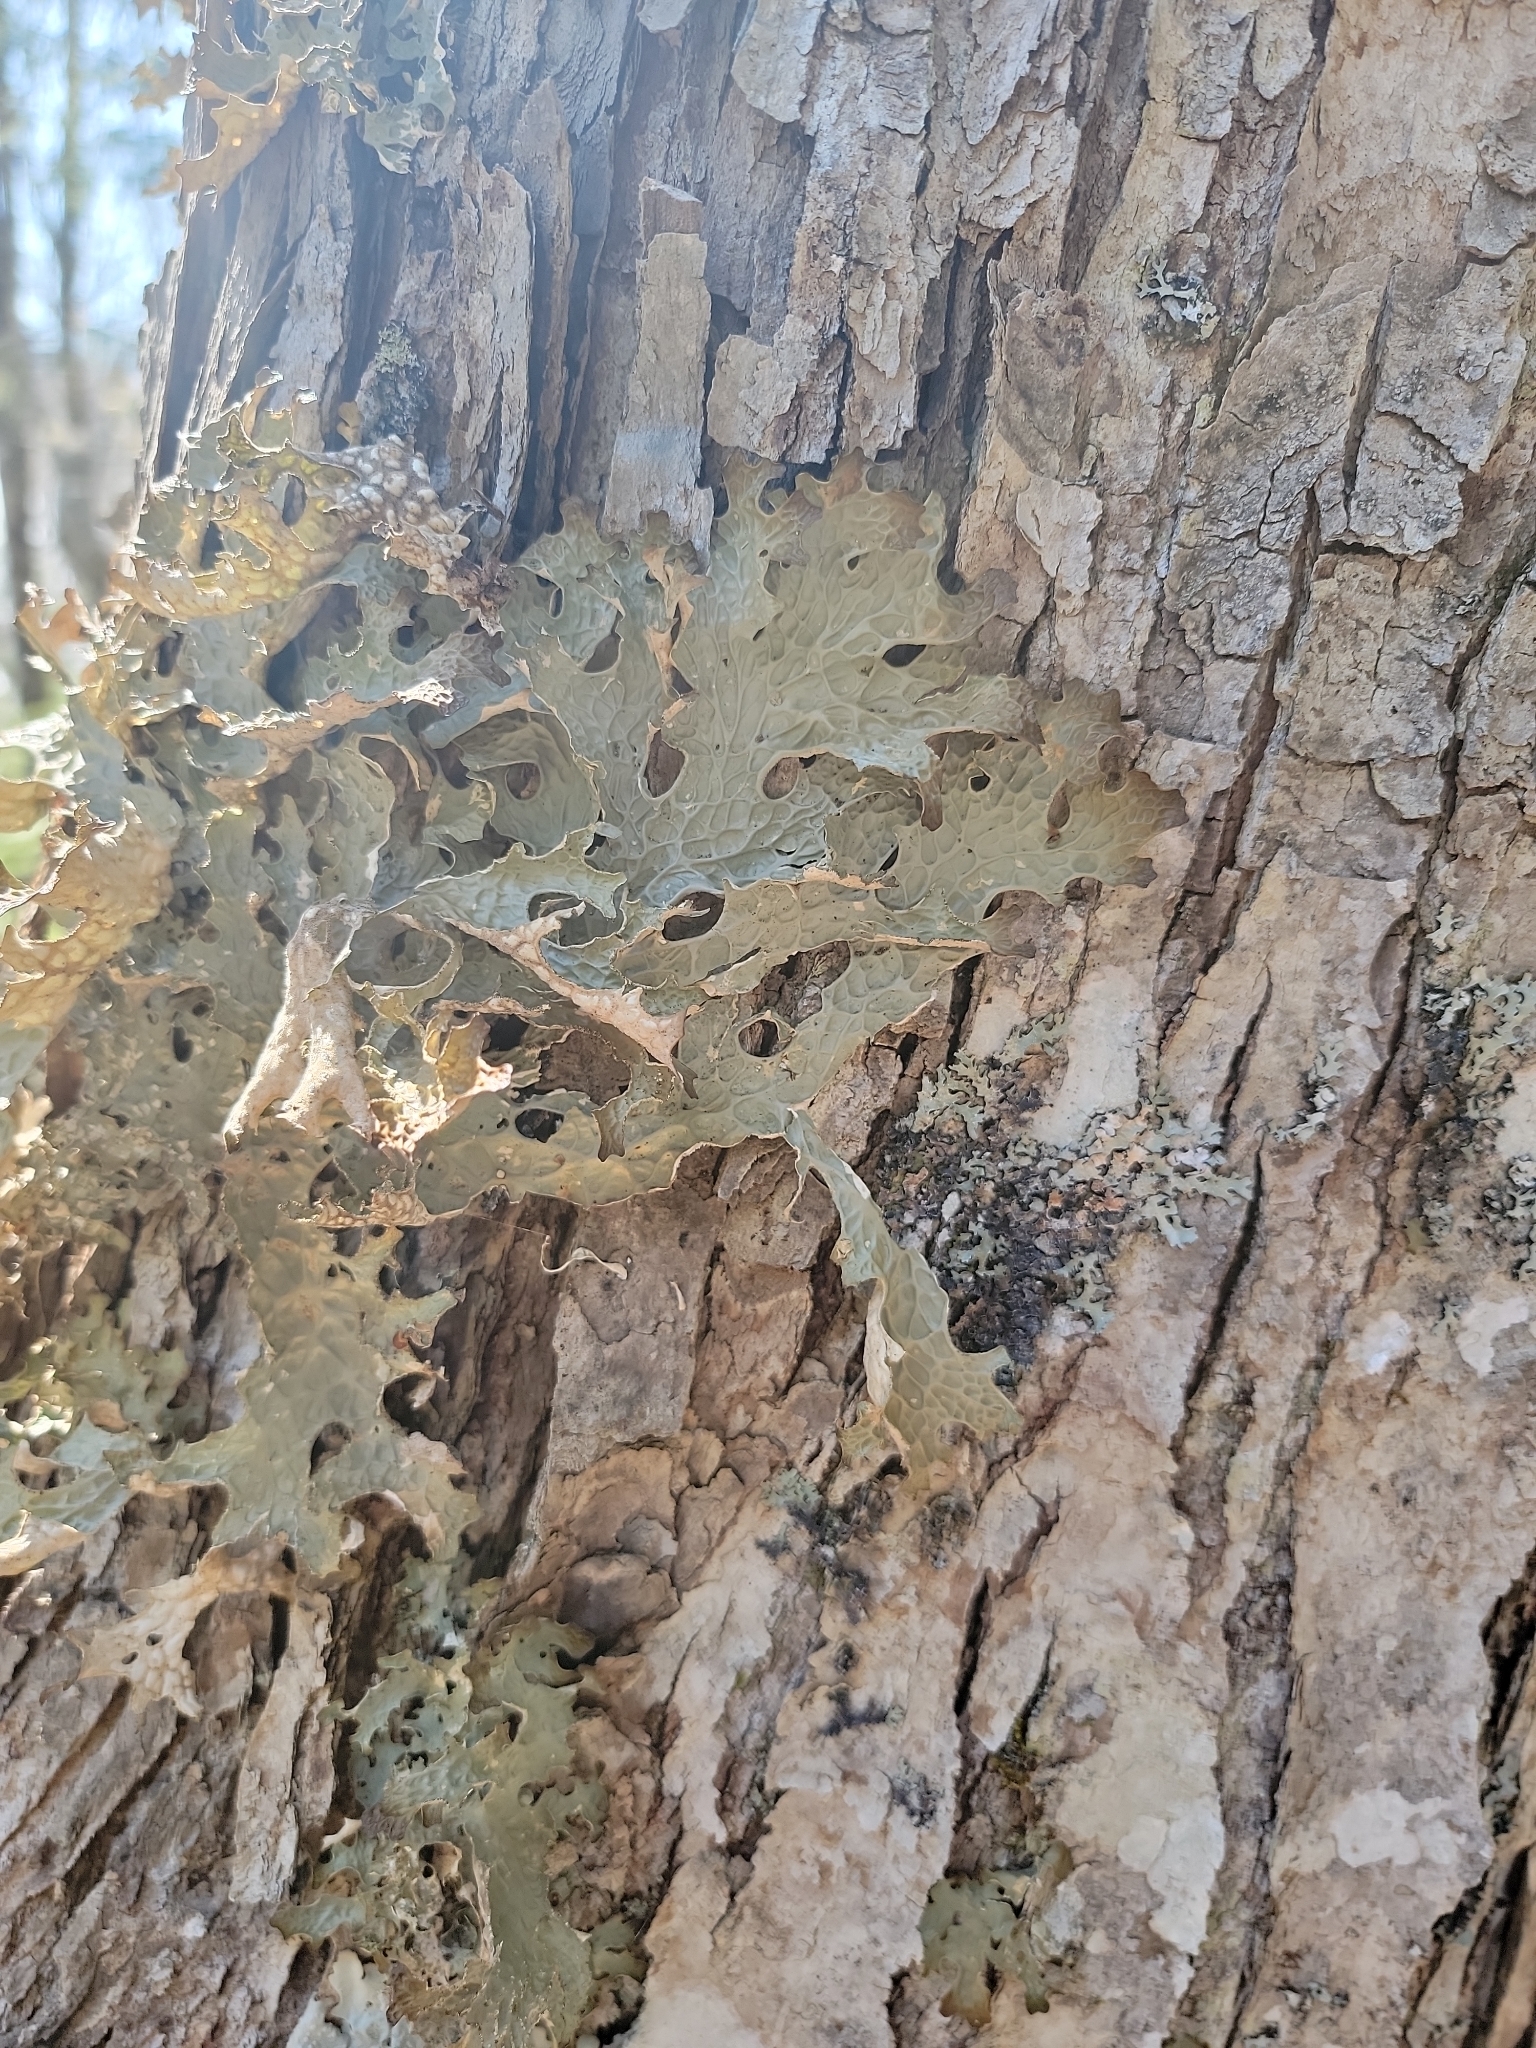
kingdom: Fungi
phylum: Ascomycota
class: Lecanoromycetes
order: Peltigerales
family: Lobariaceae
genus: Lobaria
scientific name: Lobaria pulmonaria
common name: Lungwort
